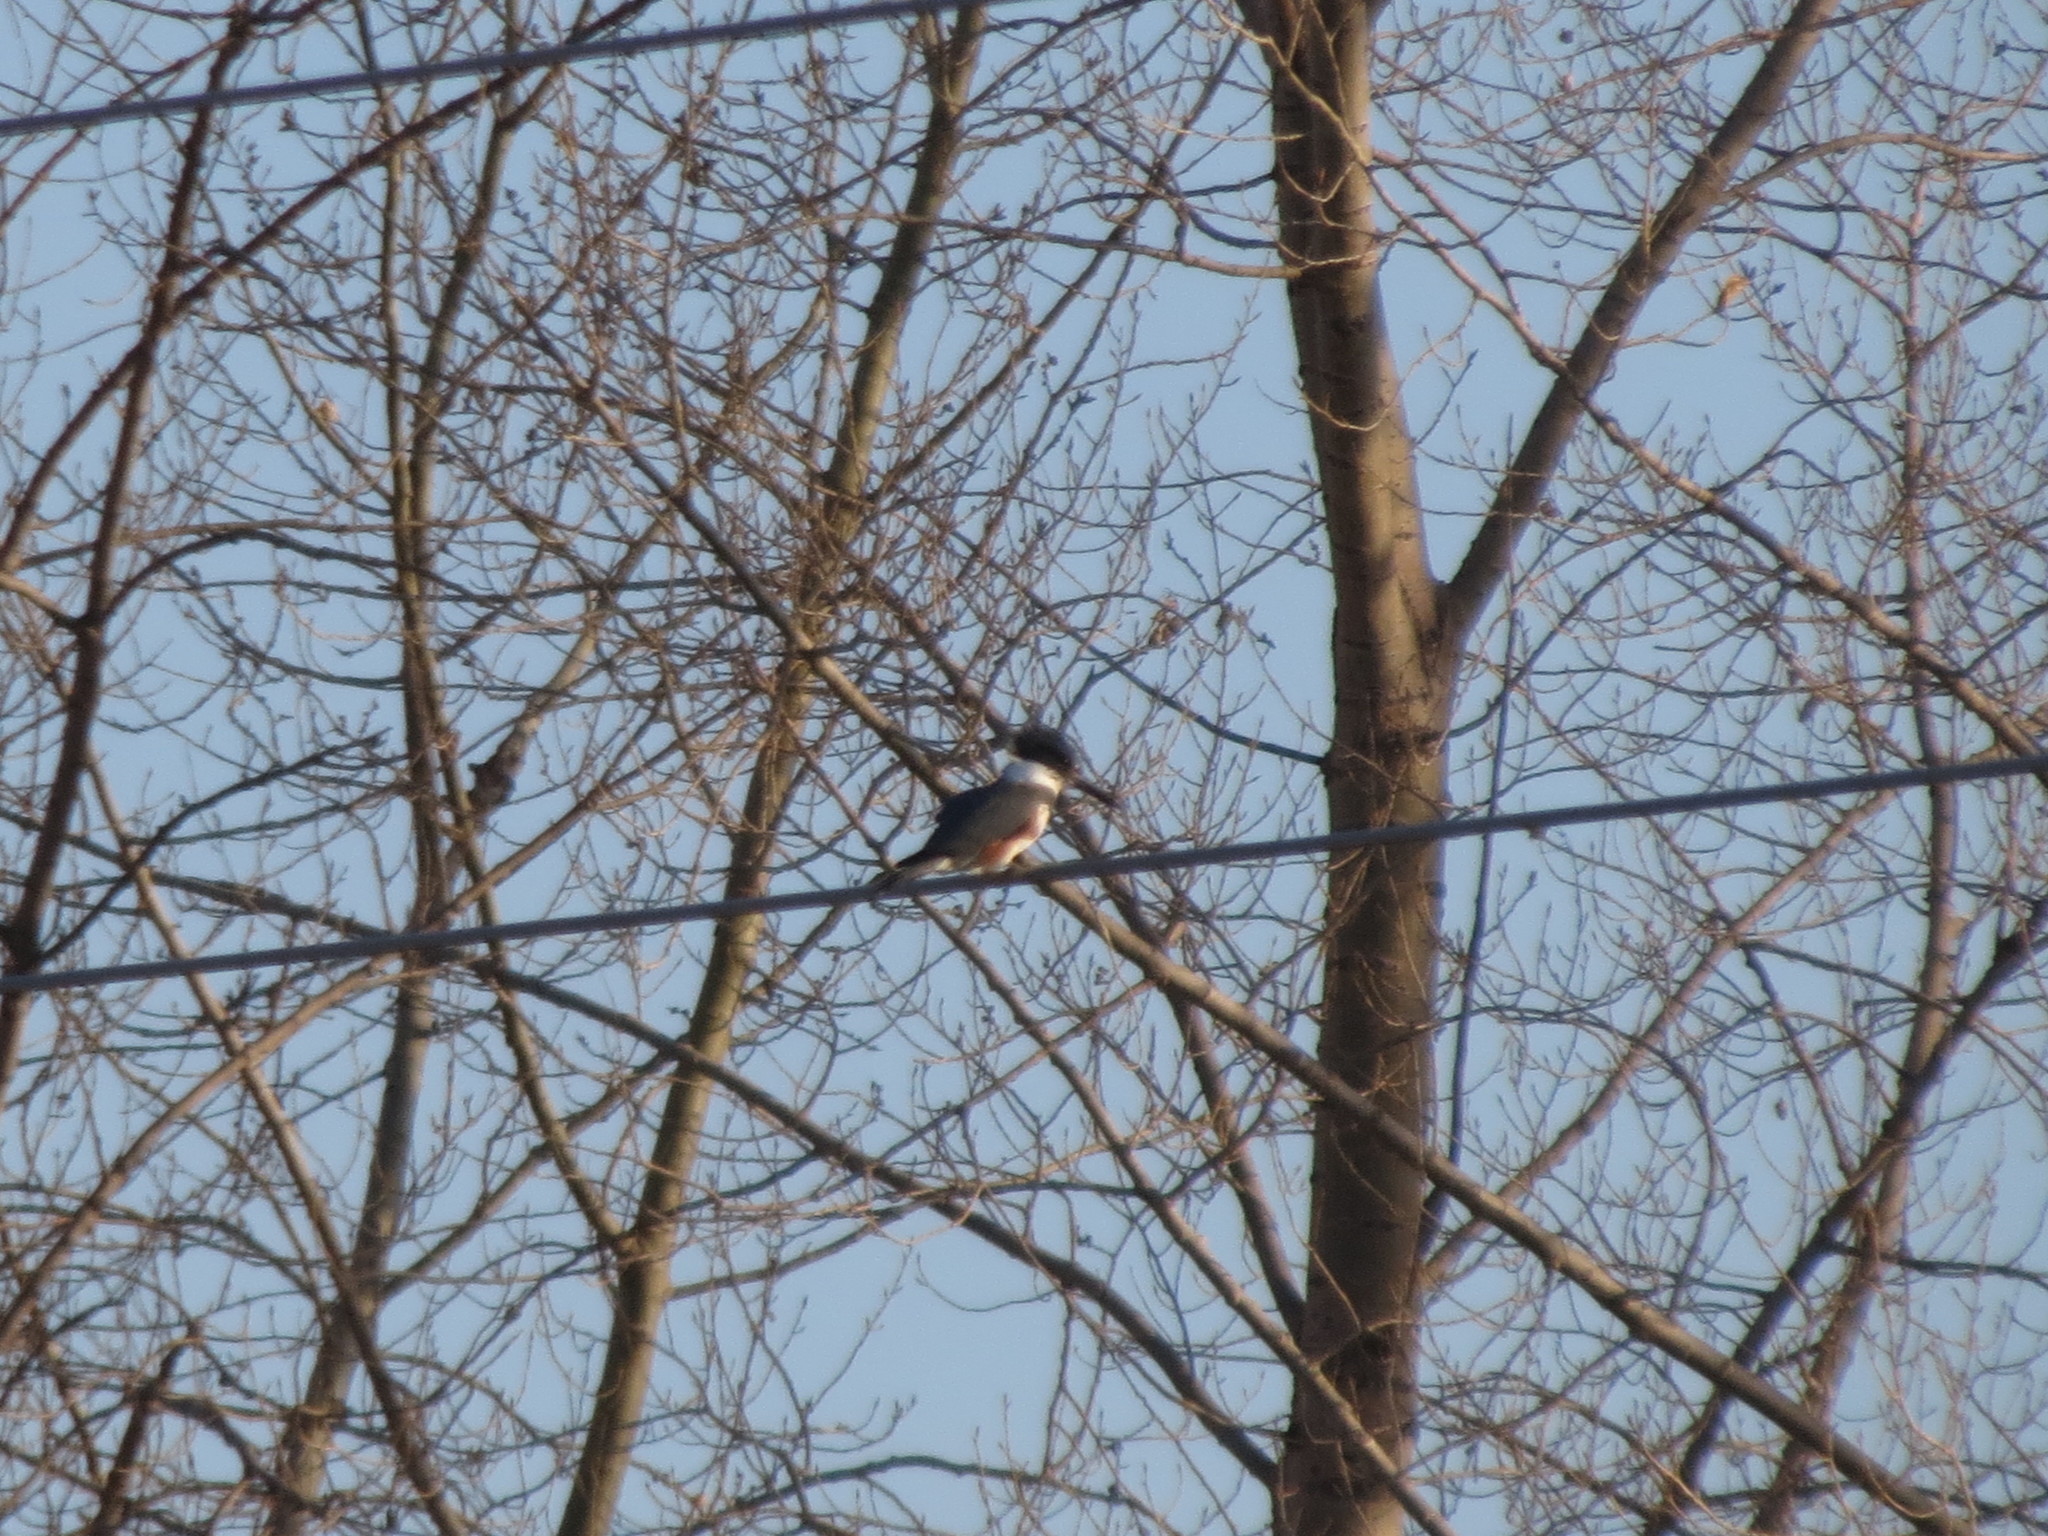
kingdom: Animalia
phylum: Chordata
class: Aves
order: Coraciiformes
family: Alcedinidae
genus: Megaceryle
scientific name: Megaceryle alcyon
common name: Belted kingfisher
